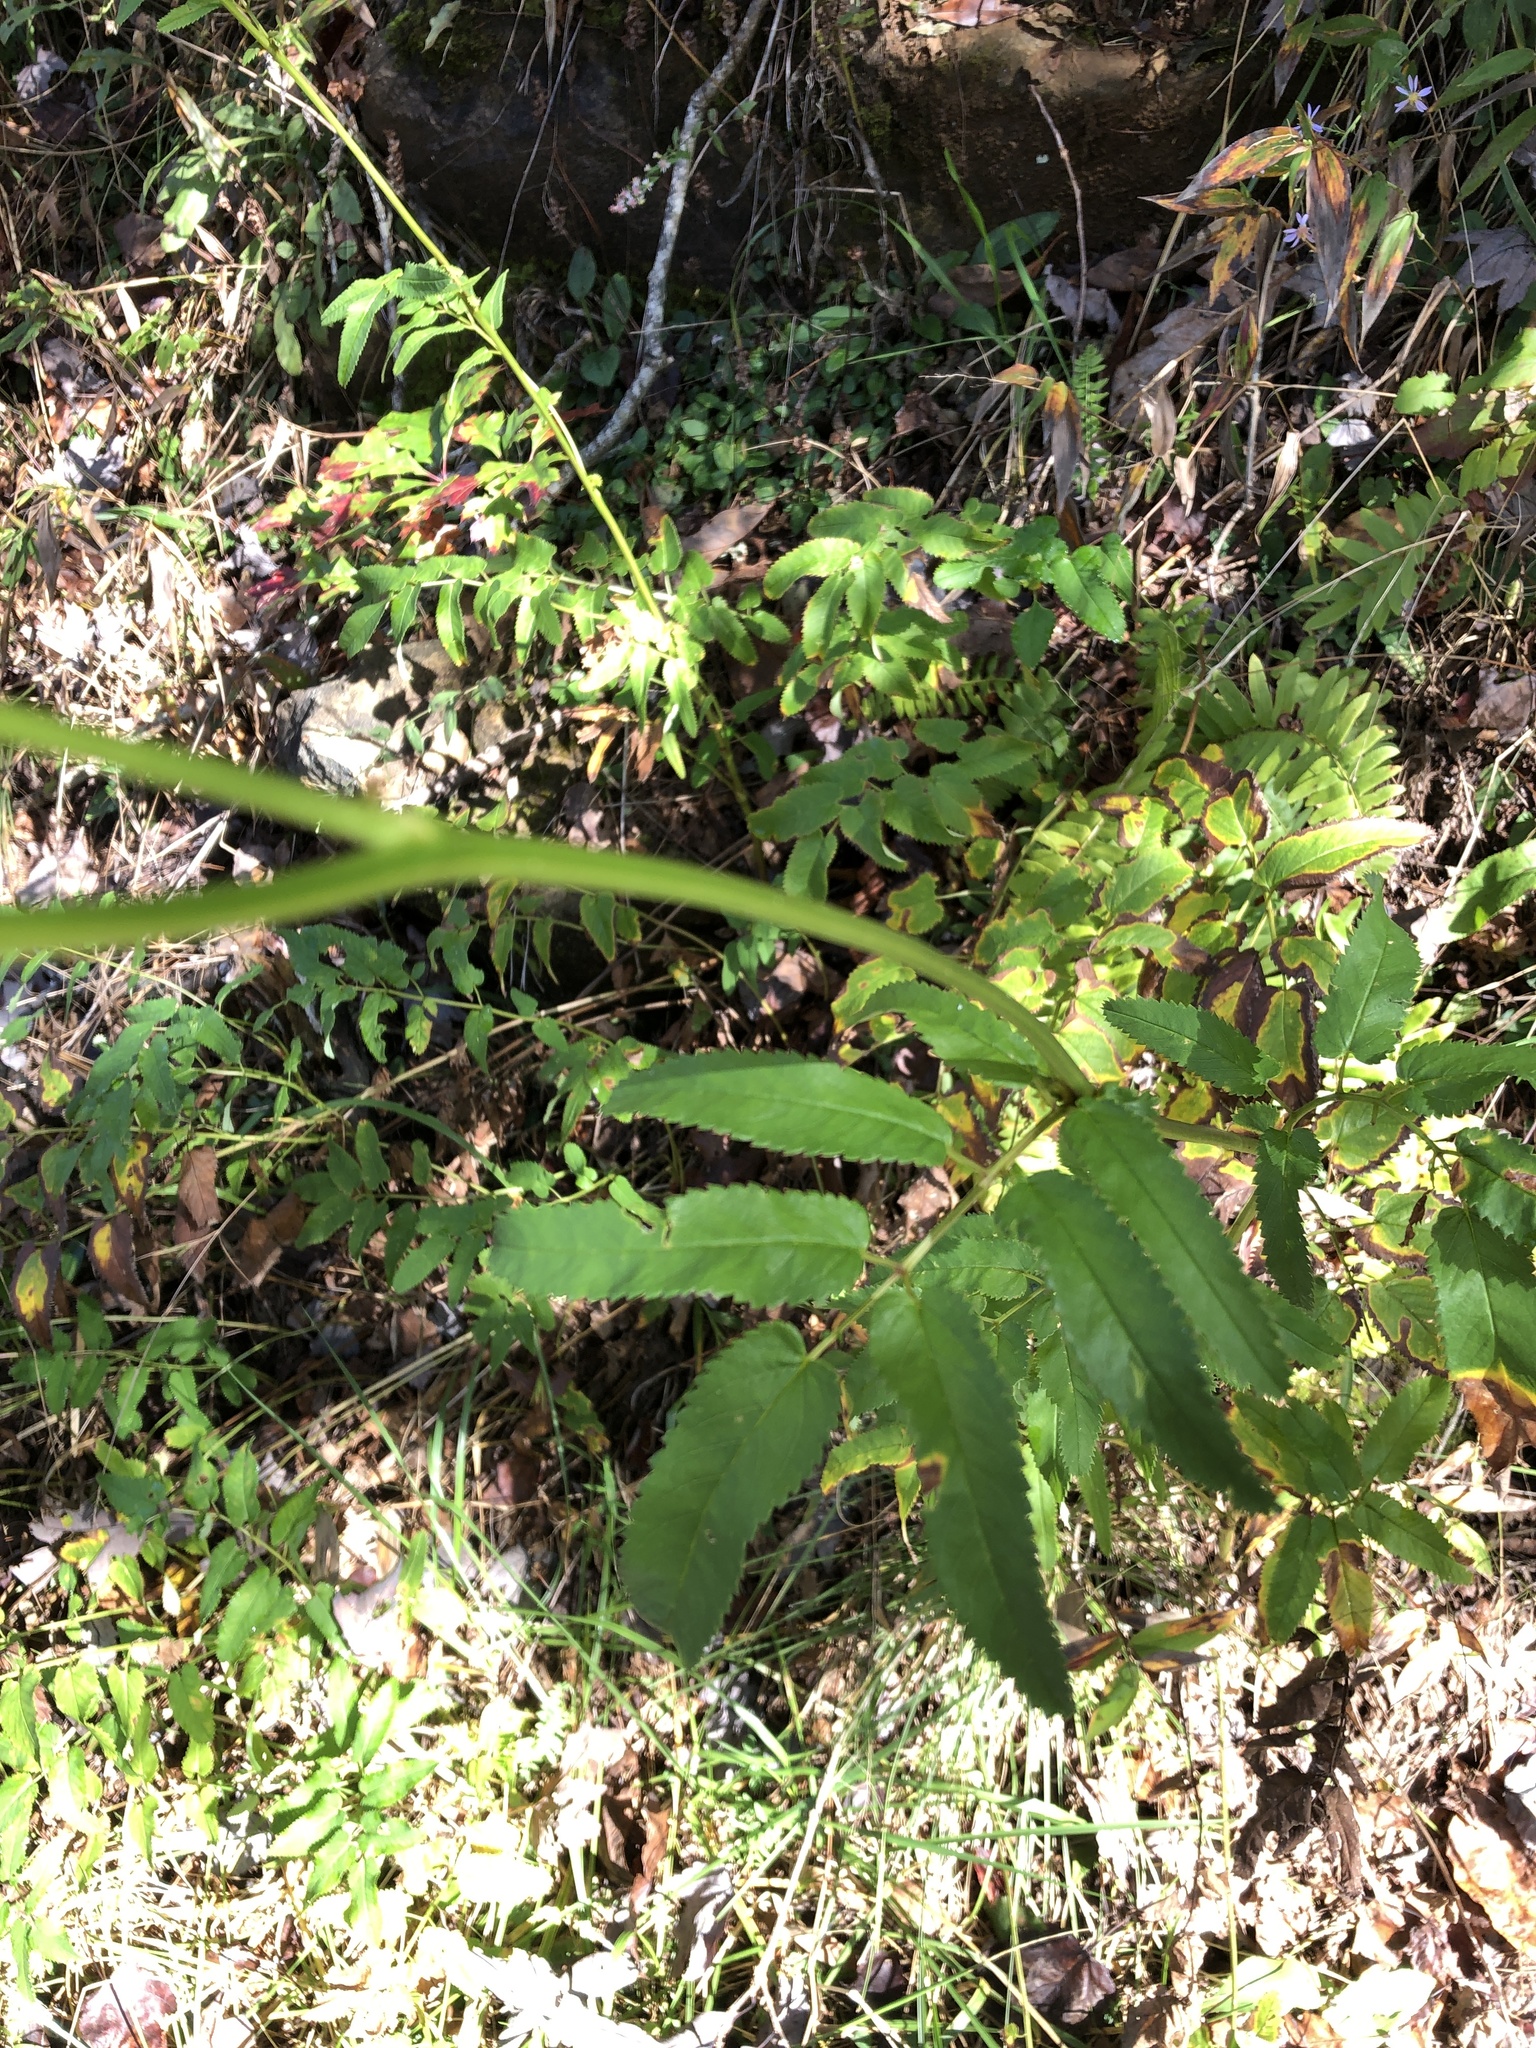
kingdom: Plantae
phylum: Tracheophyta
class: Magnoliopsida
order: Rosales
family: Rosaceae
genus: Sanguisorba
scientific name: Sanguisorba canadensis
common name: White burnet
